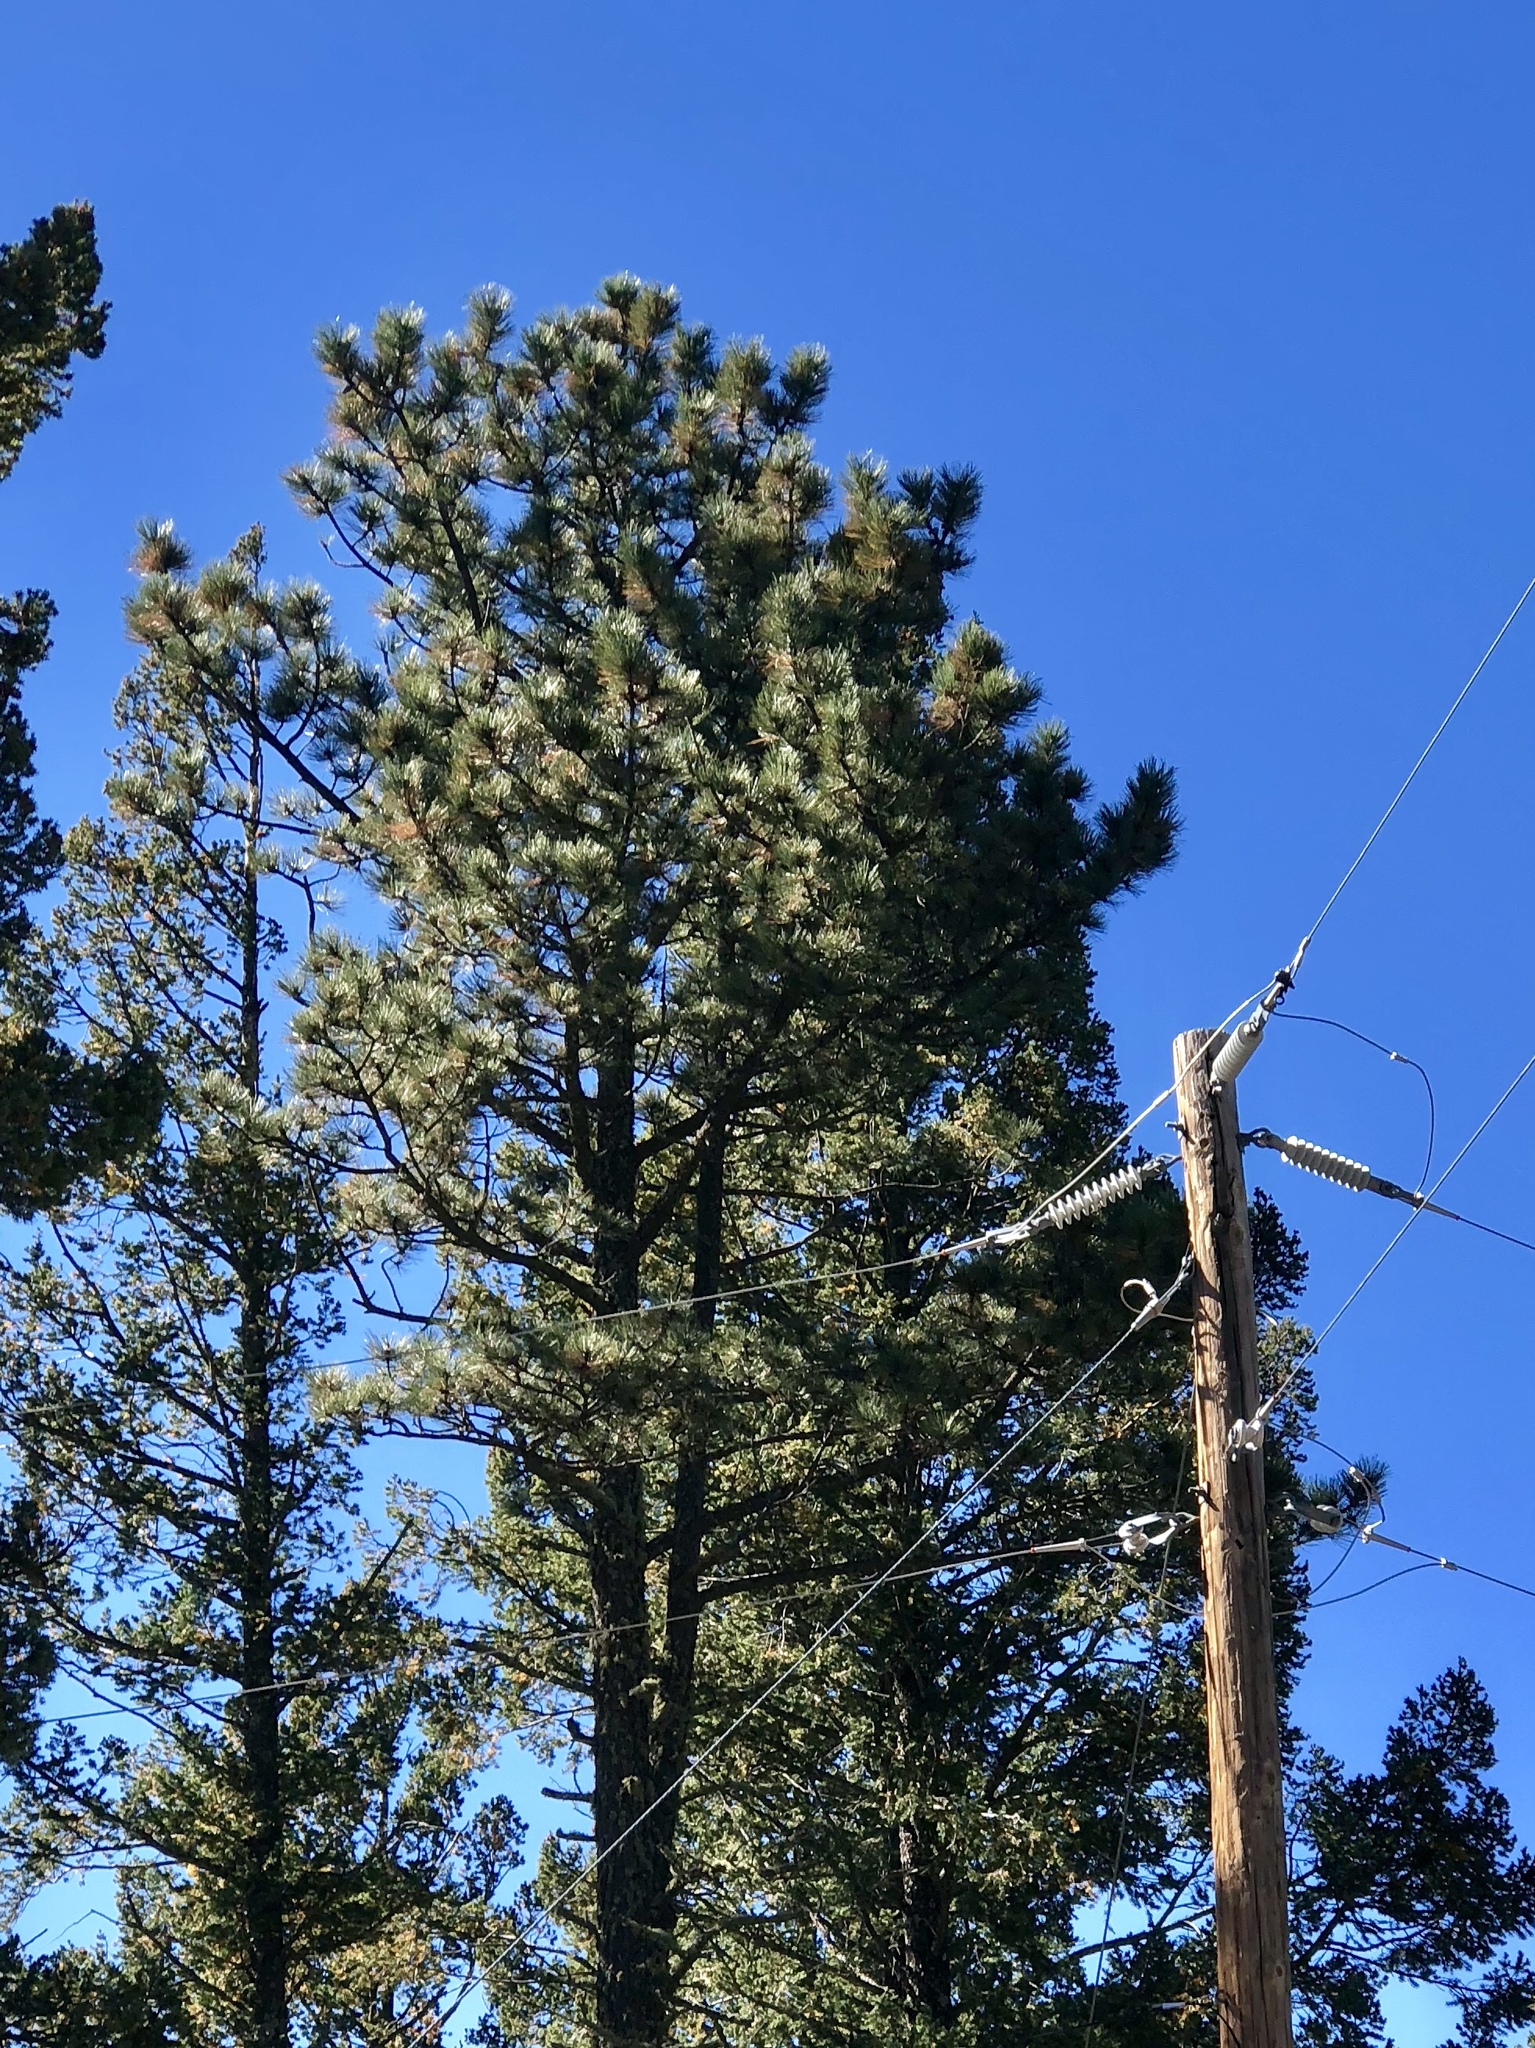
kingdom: Plantae
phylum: Tracheophyta
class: Pinopsida
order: Pinales
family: Pinaceae
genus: Pinus
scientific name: Pinus ponderosa
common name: Western yellow-pine
